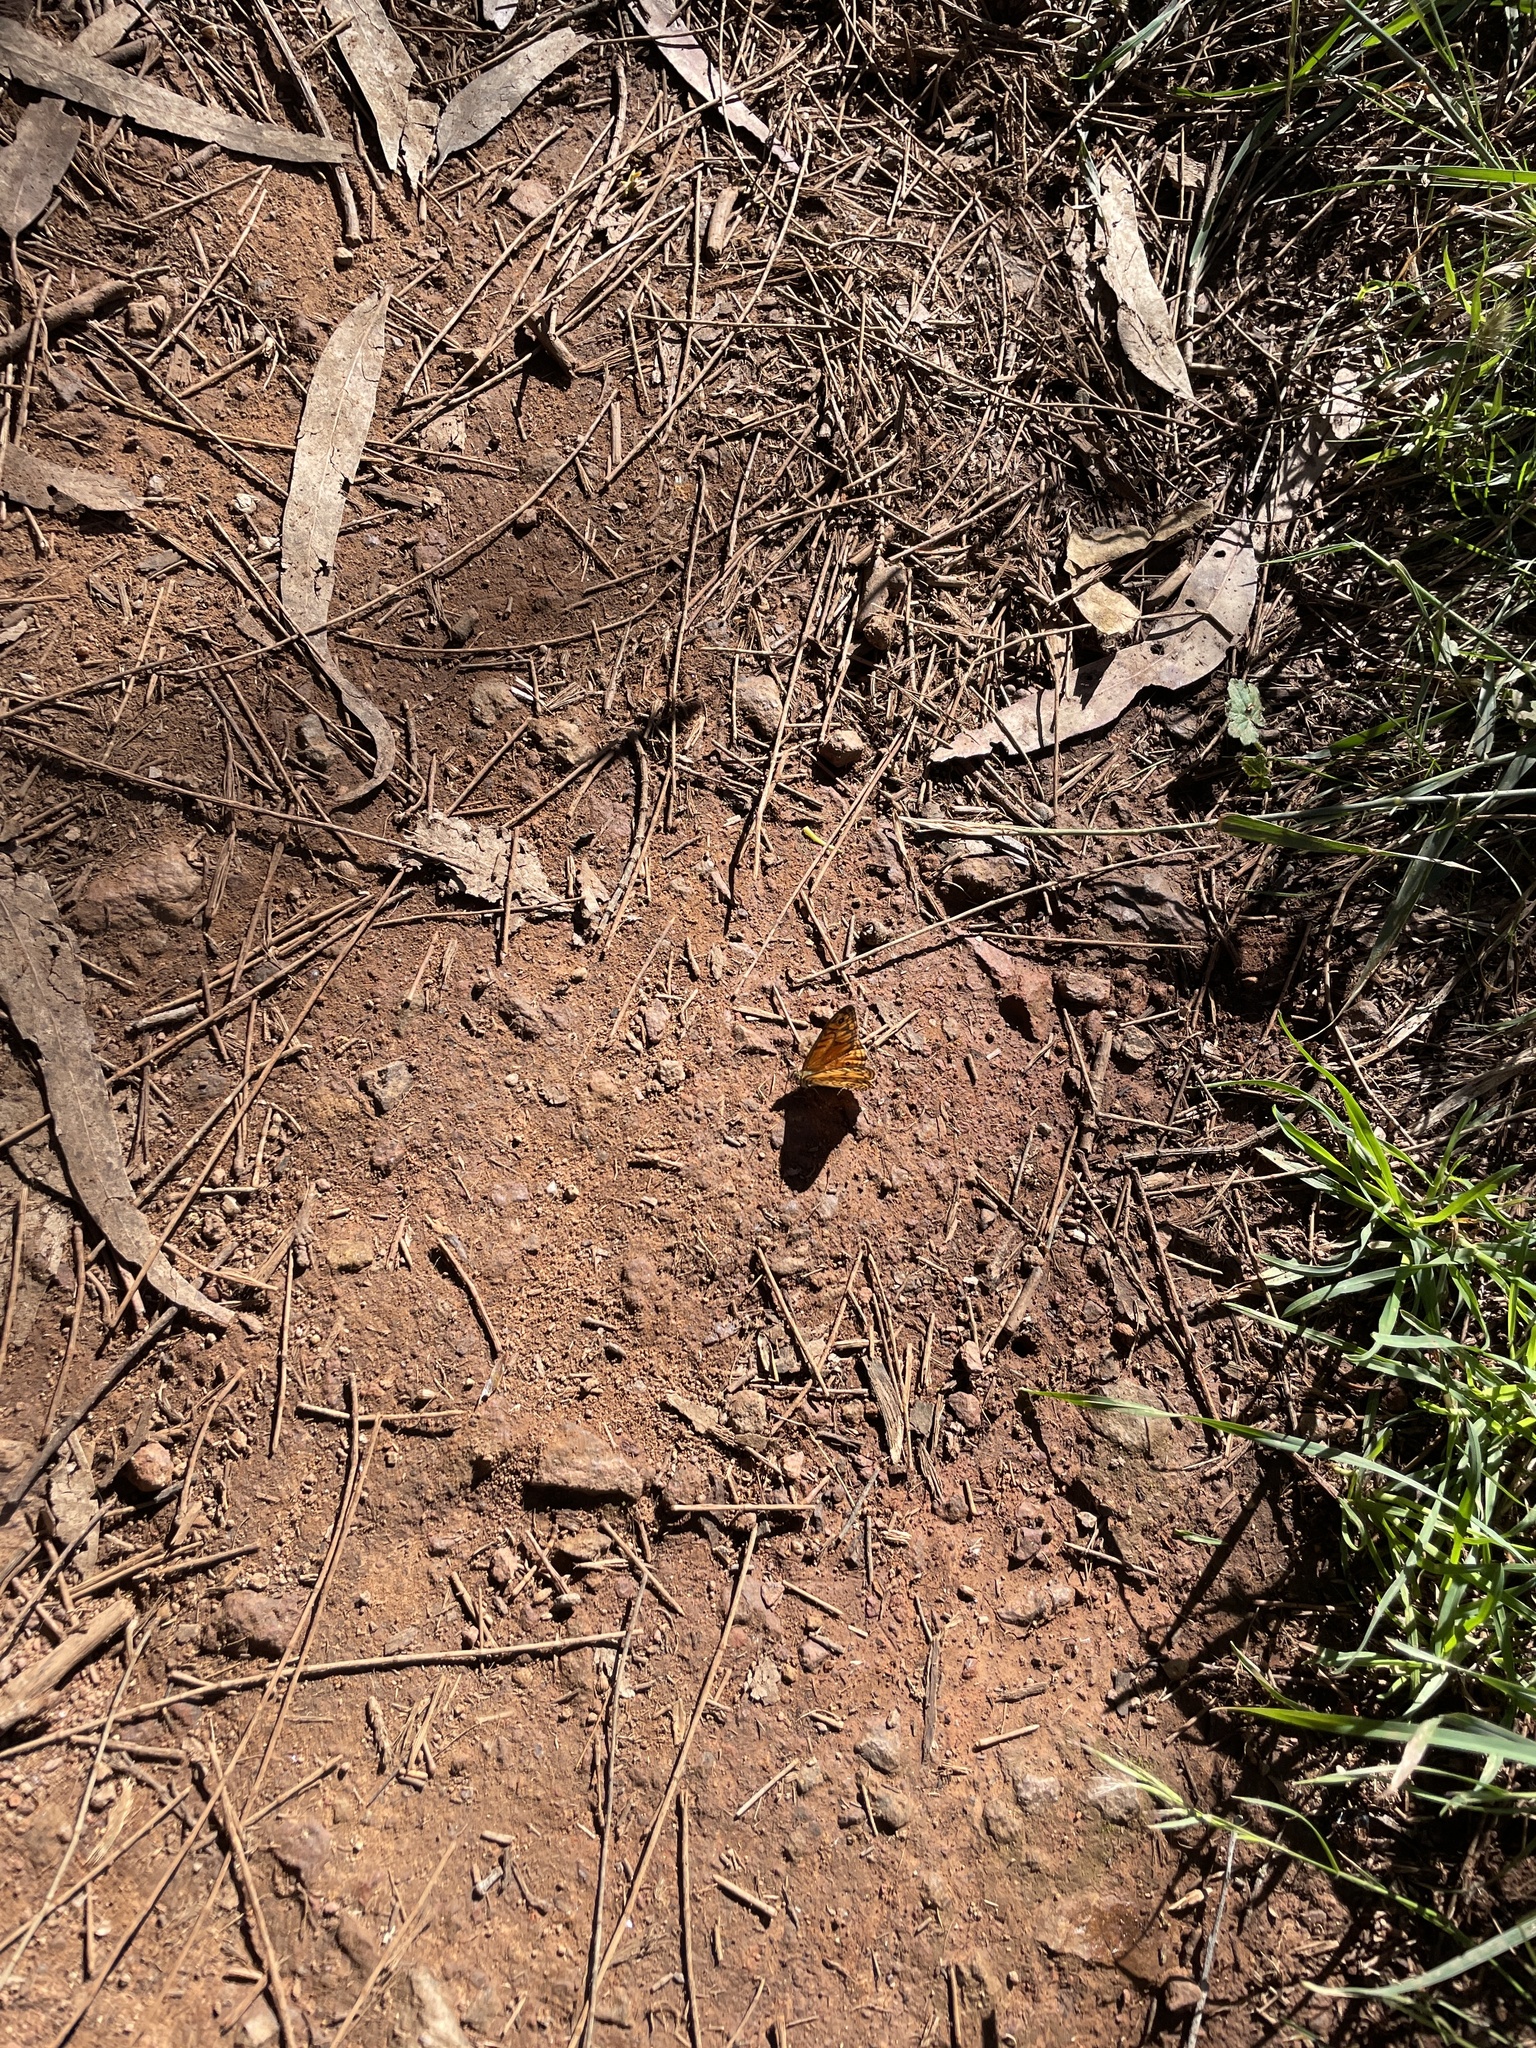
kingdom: Animalia
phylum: Arthropoda
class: Insecta
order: Lepidoptera
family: Nymphalidae
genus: Geitoneura
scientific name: Geitoneura acantha
